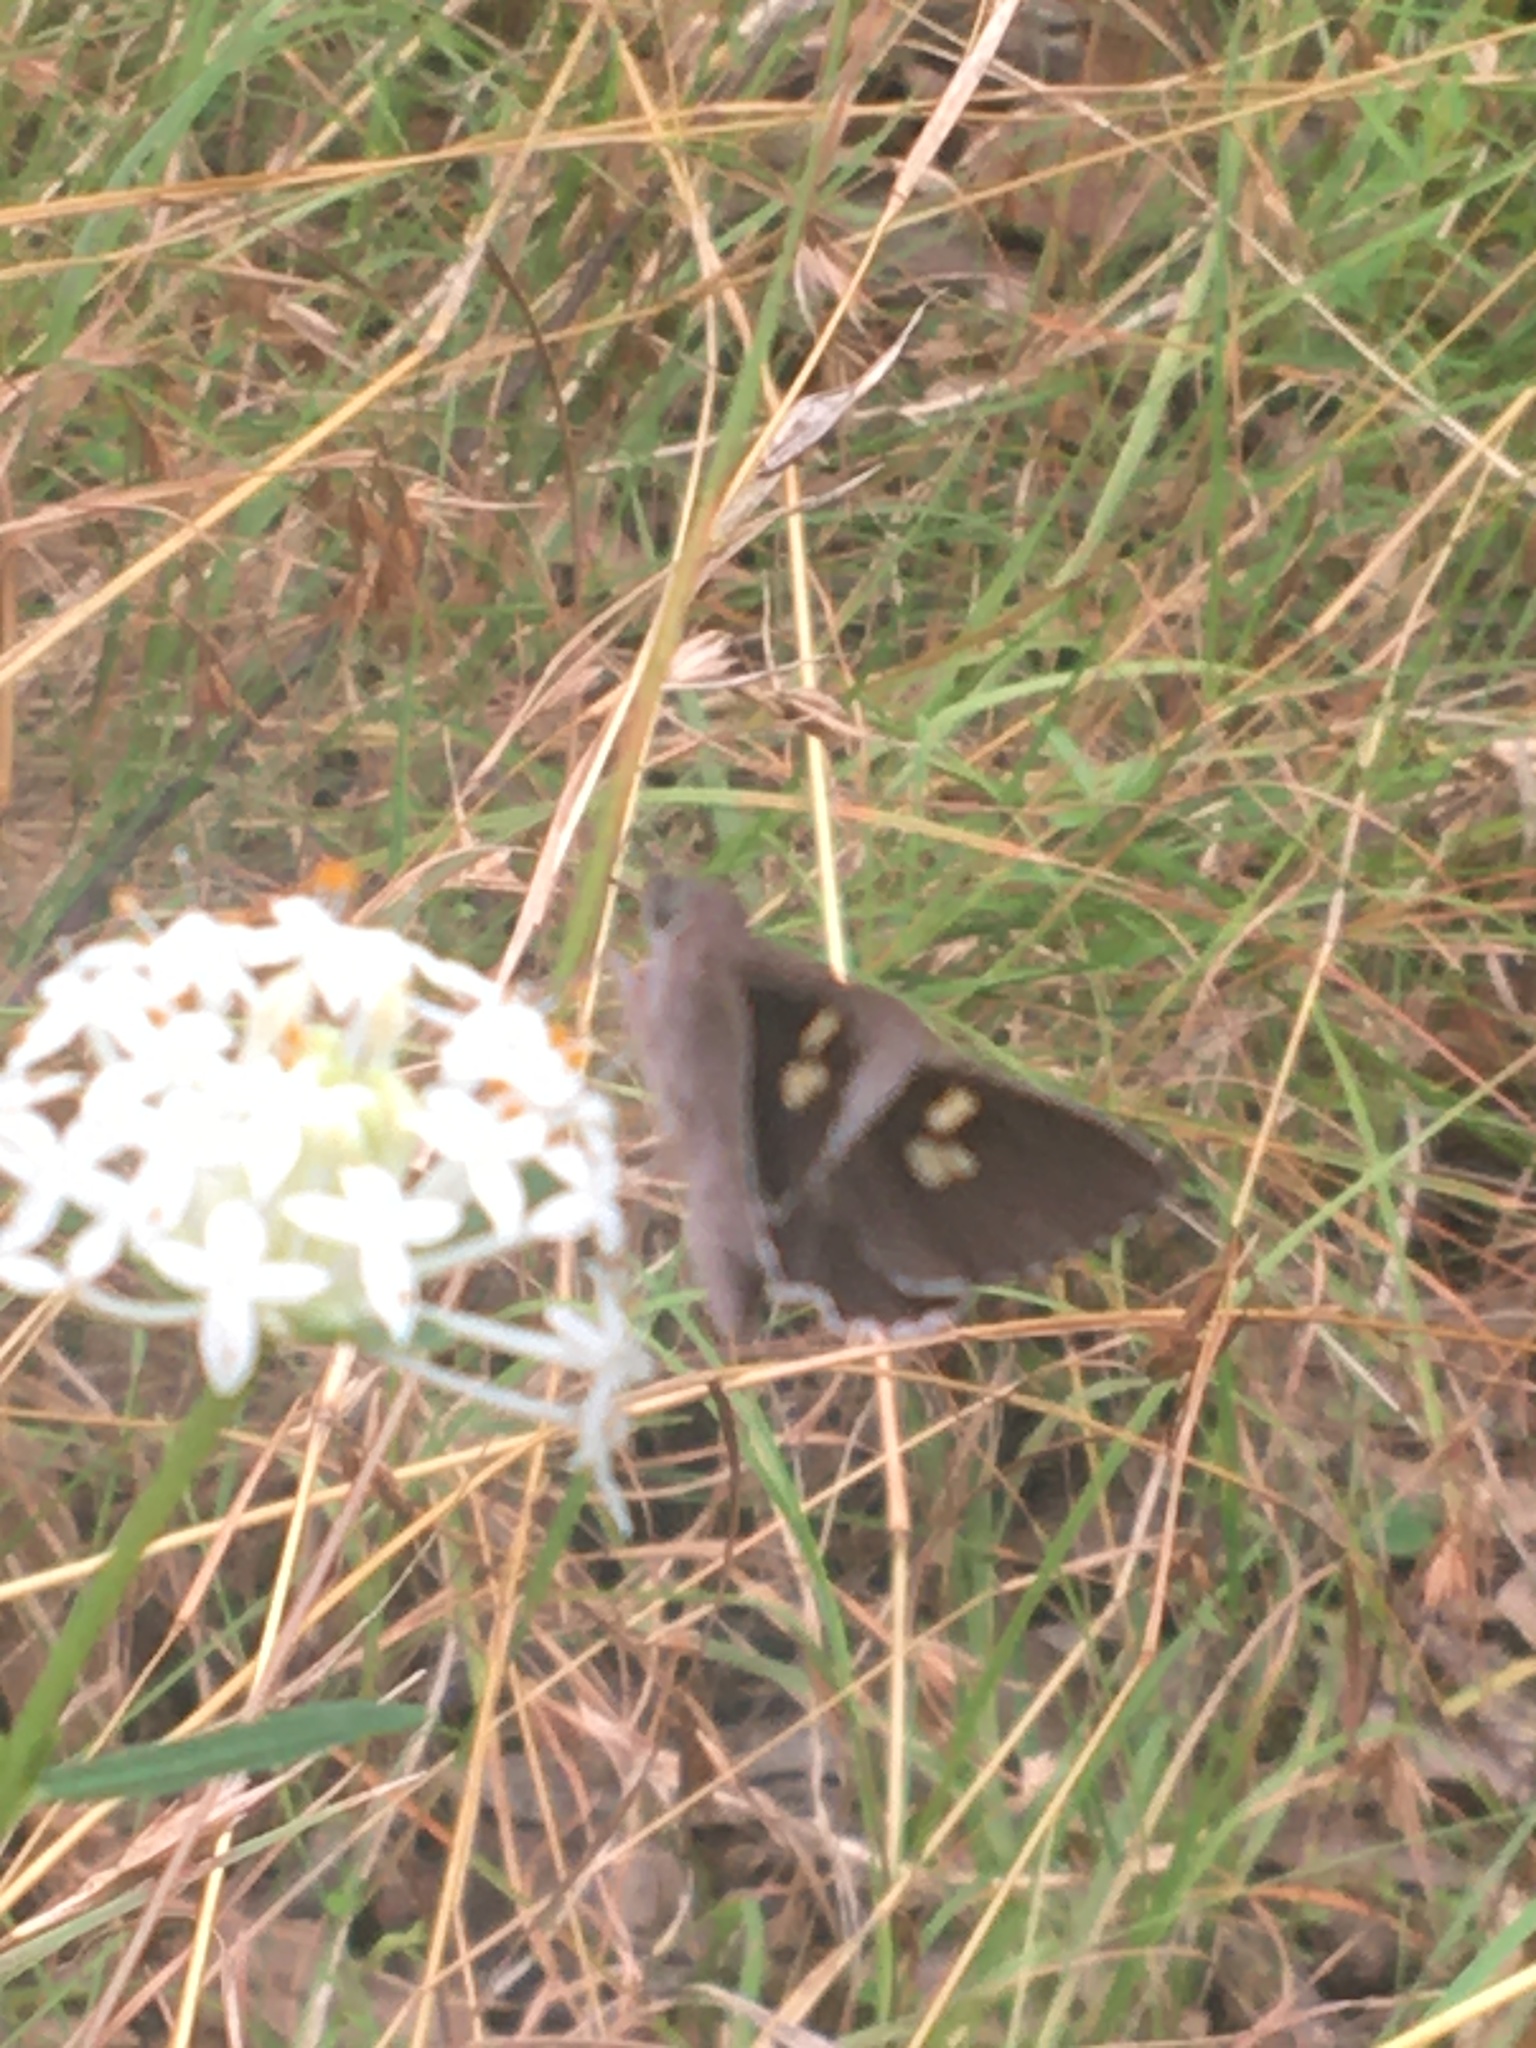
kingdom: Animalia
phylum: Arthropoda
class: Insecta
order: Lepidoptera
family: Hesperiidae
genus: Mesodina
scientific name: Mesodina halyzia
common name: Eastern iris-skipper
